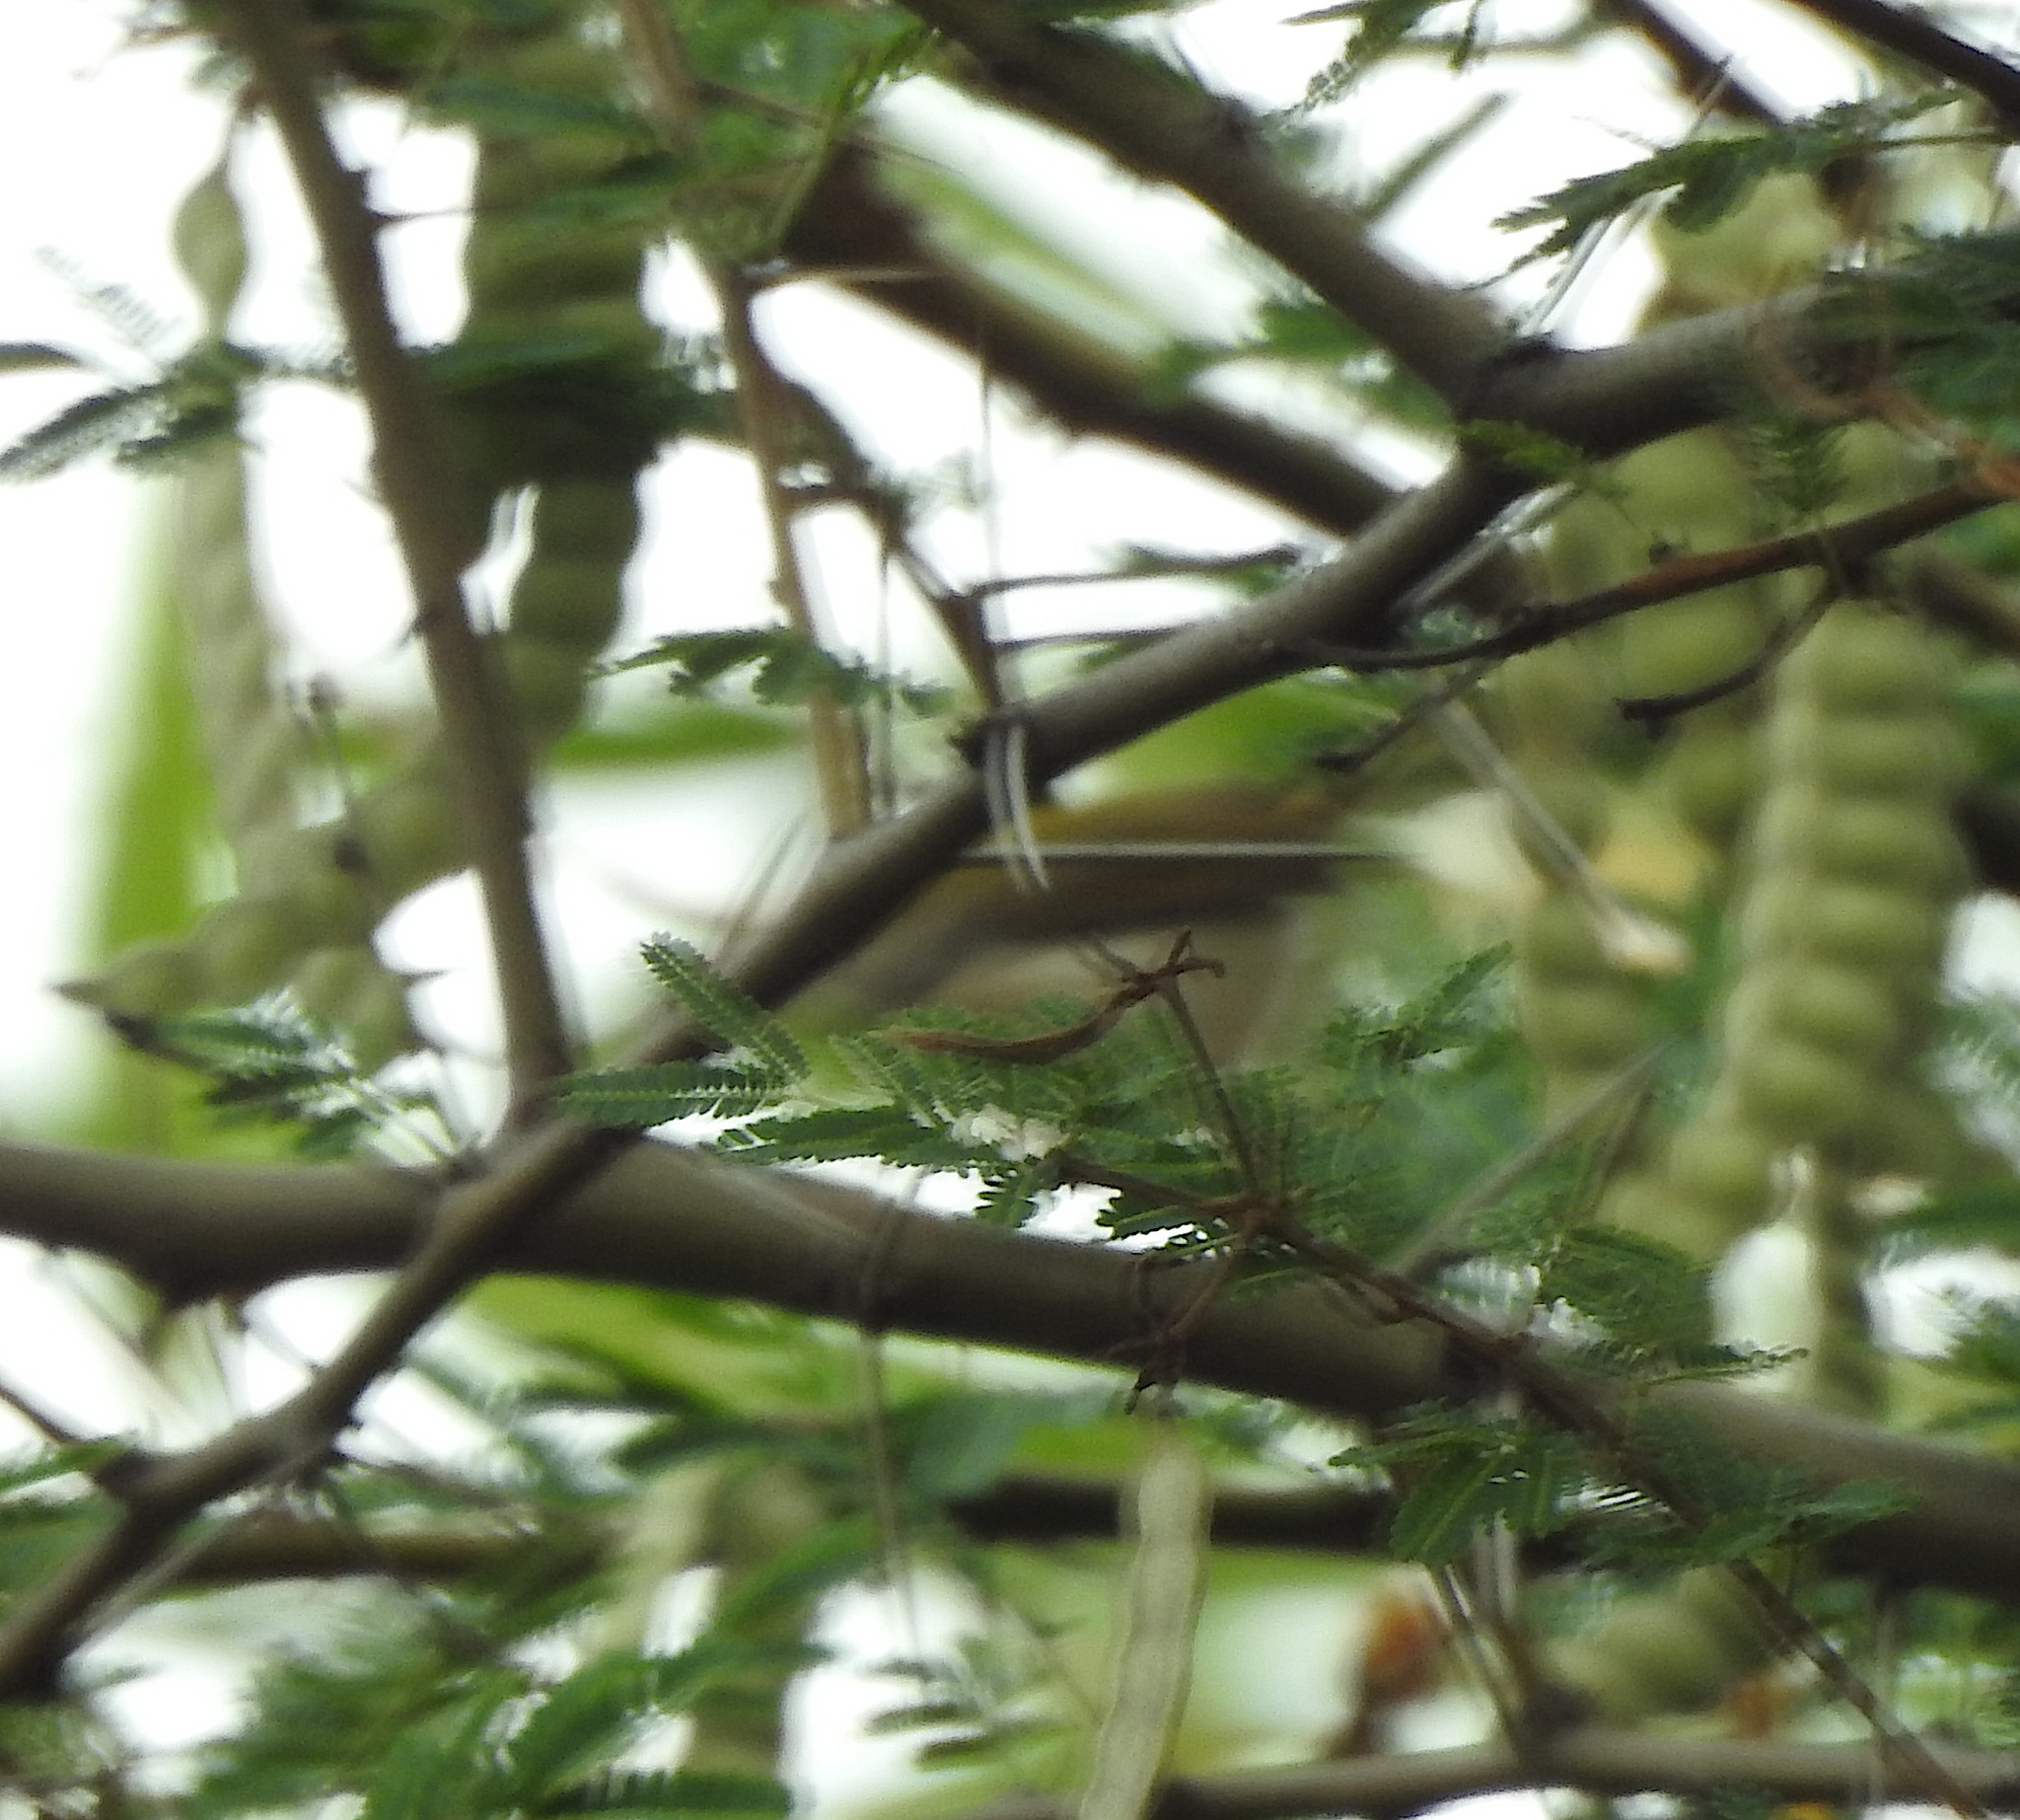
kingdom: Animalia
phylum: Chordata
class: Aves
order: Passeriformes
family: Cisticolidae
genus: Orthotomus
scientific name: Orthotomus sutorius
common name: Common tailorbird
